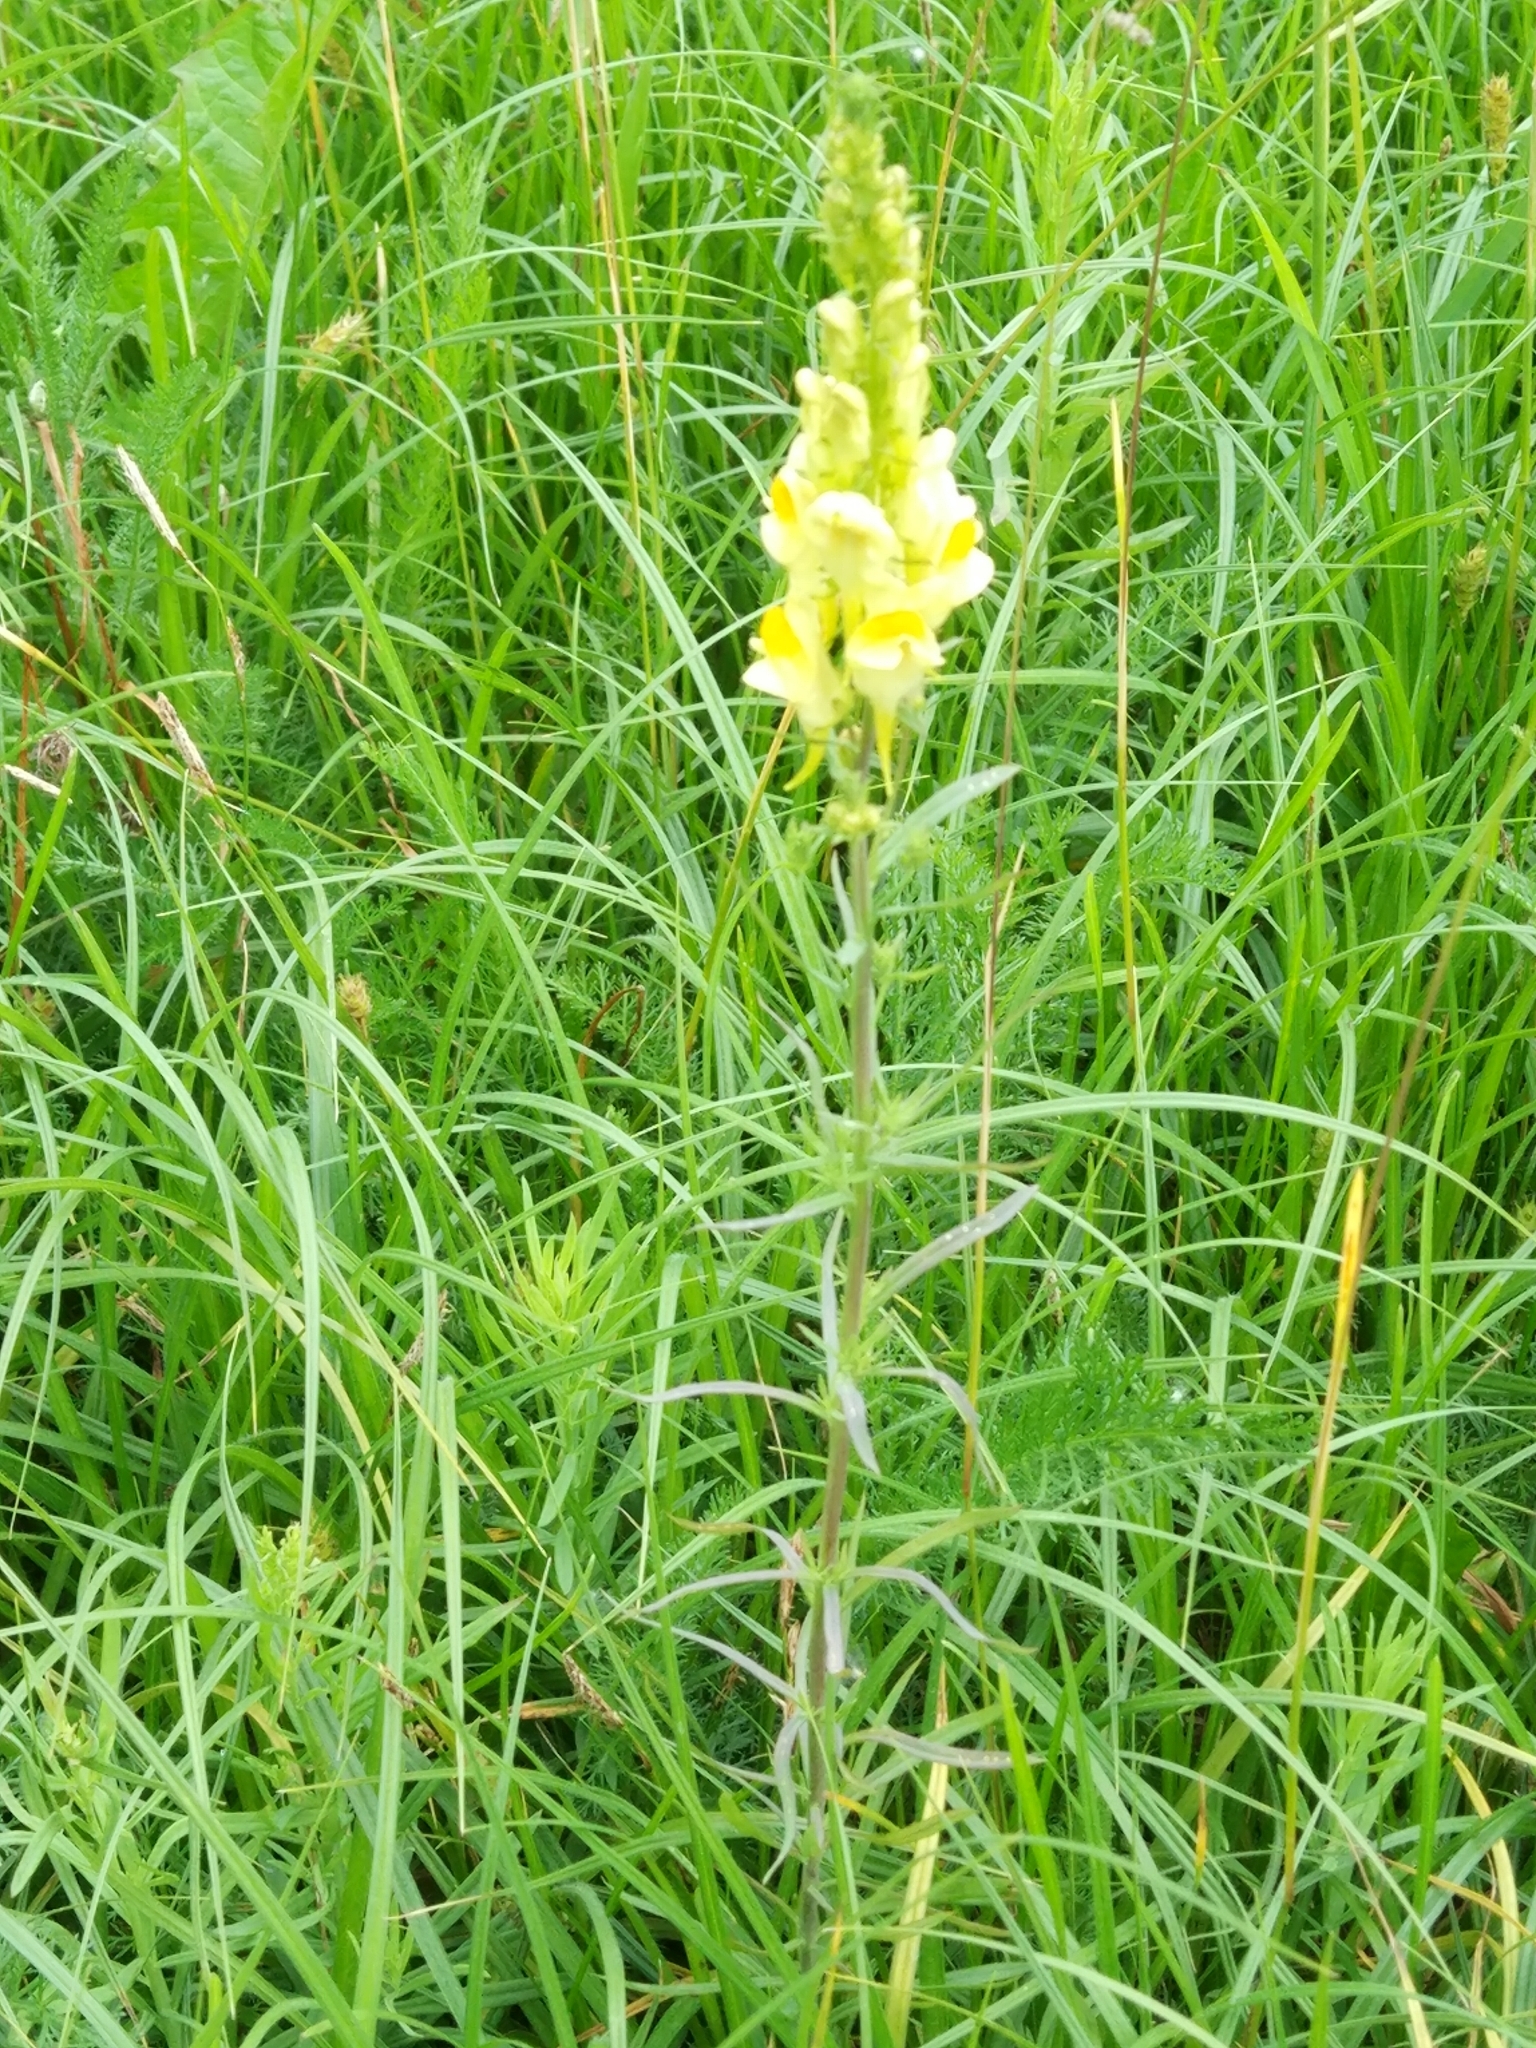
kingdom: Plantae
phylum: Tracheophyta
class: Magnoliopsida
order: Lamiales
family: Plantaginaceae
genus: Linaria
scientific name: Linaria vulgaris
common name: Butter and eggs
